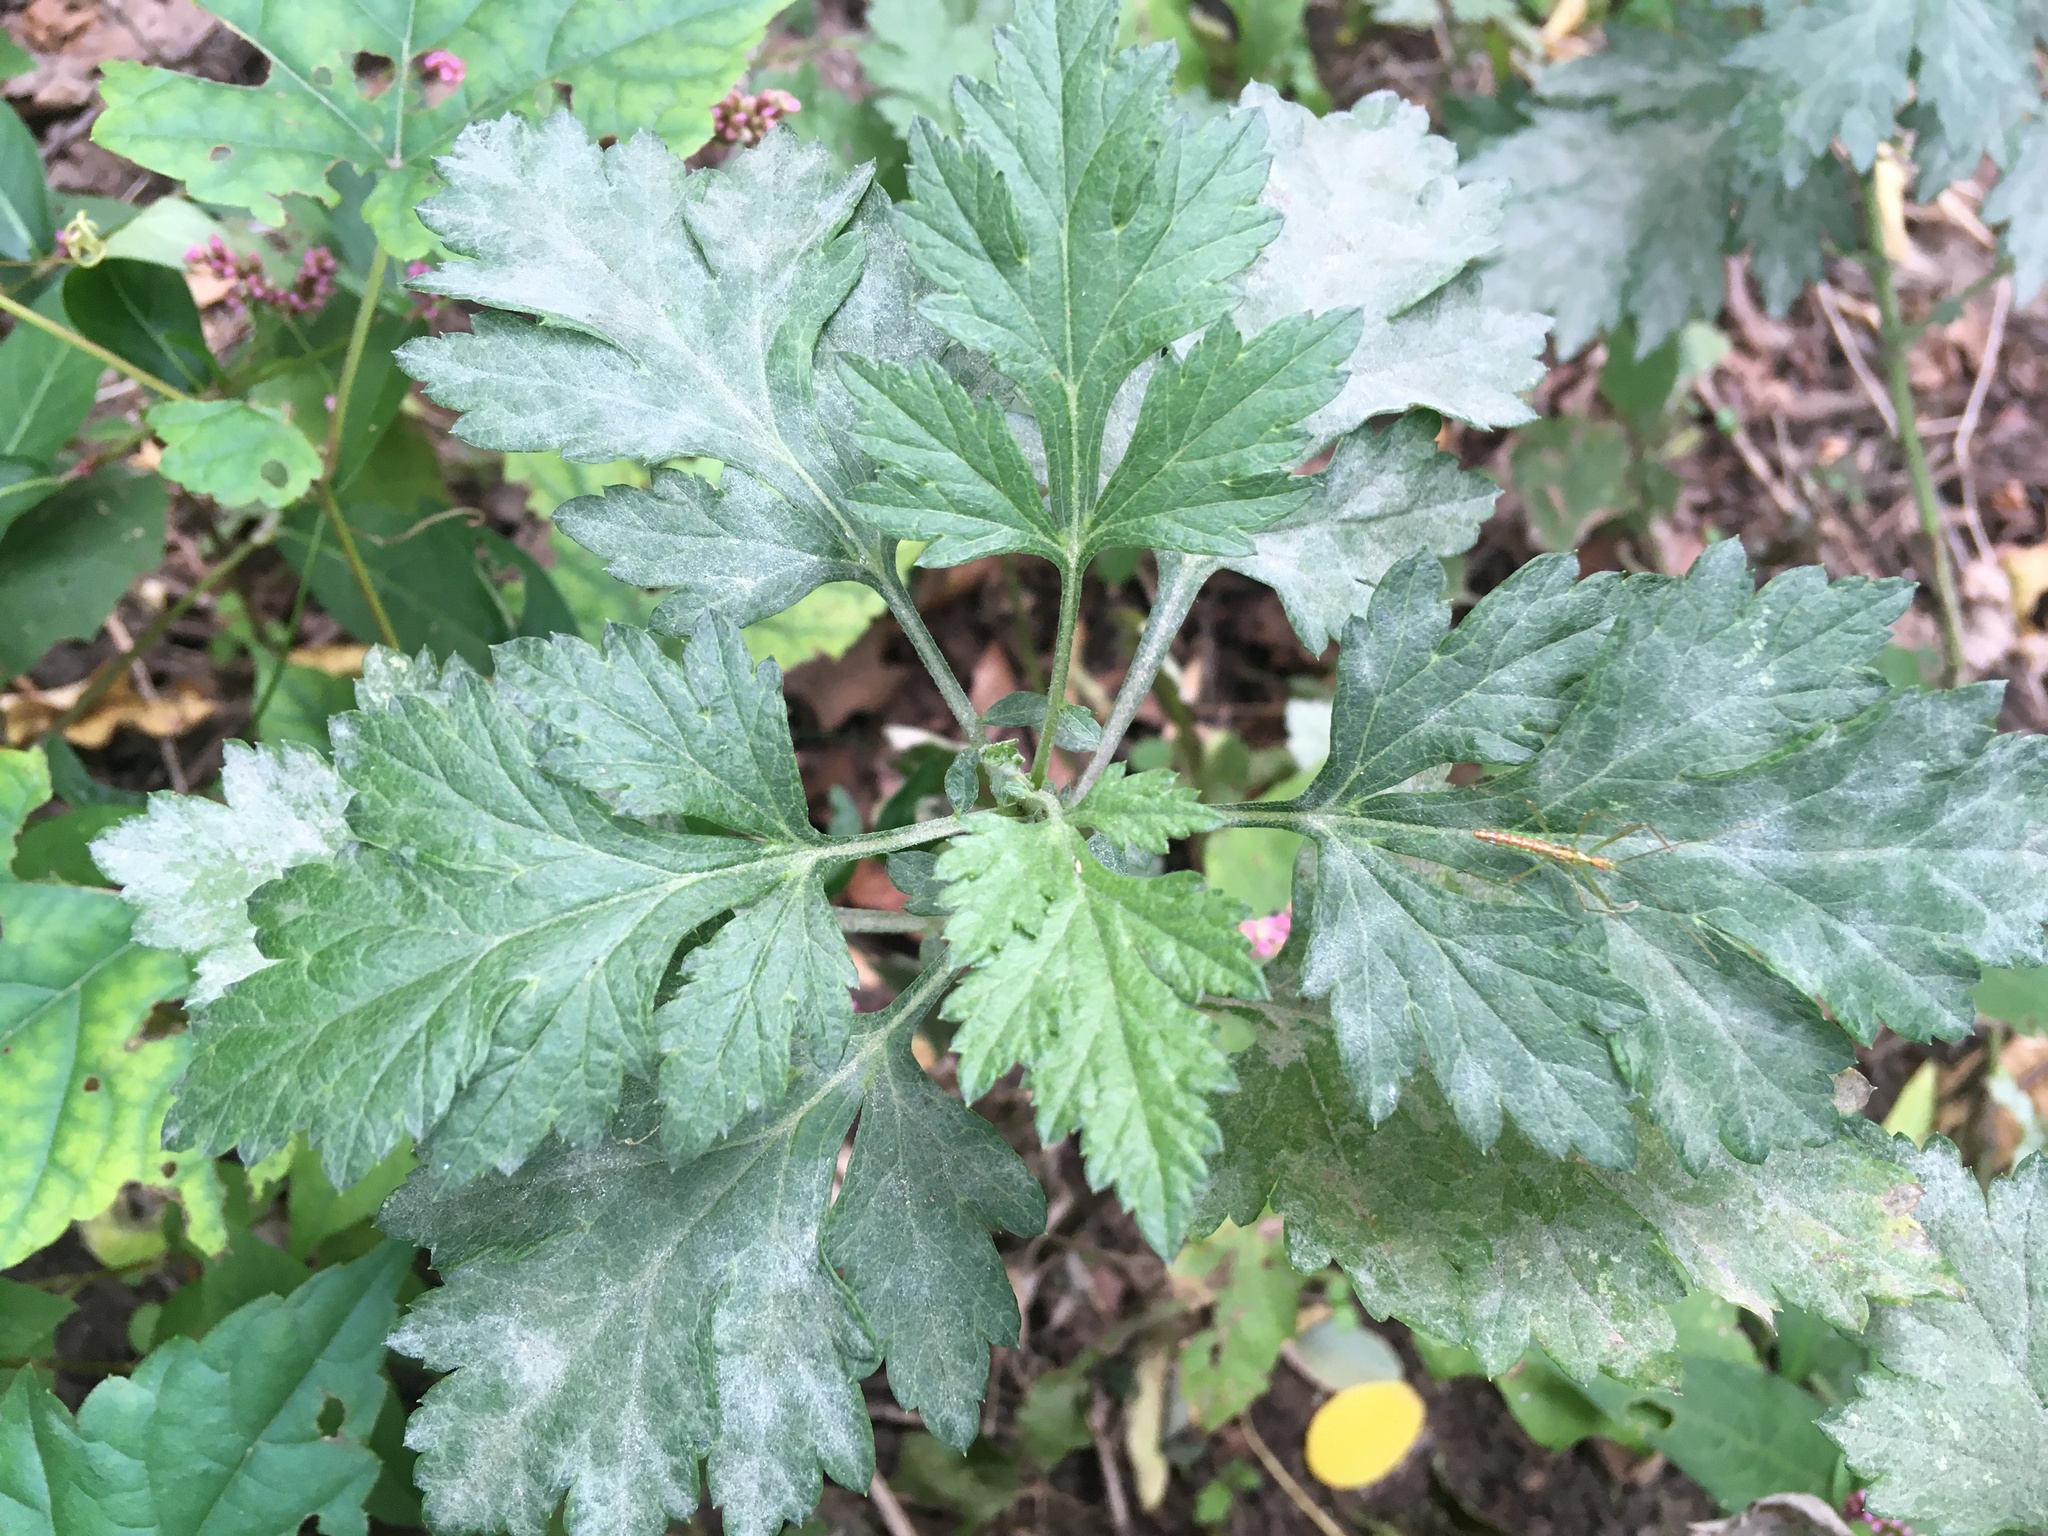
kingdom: Plantae
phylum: Tracheophyta
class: Magnoliopsida
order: Asterales
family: Asteraceae
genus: Artemisia
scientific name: Artemisia vulgaris
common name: Mugwort
